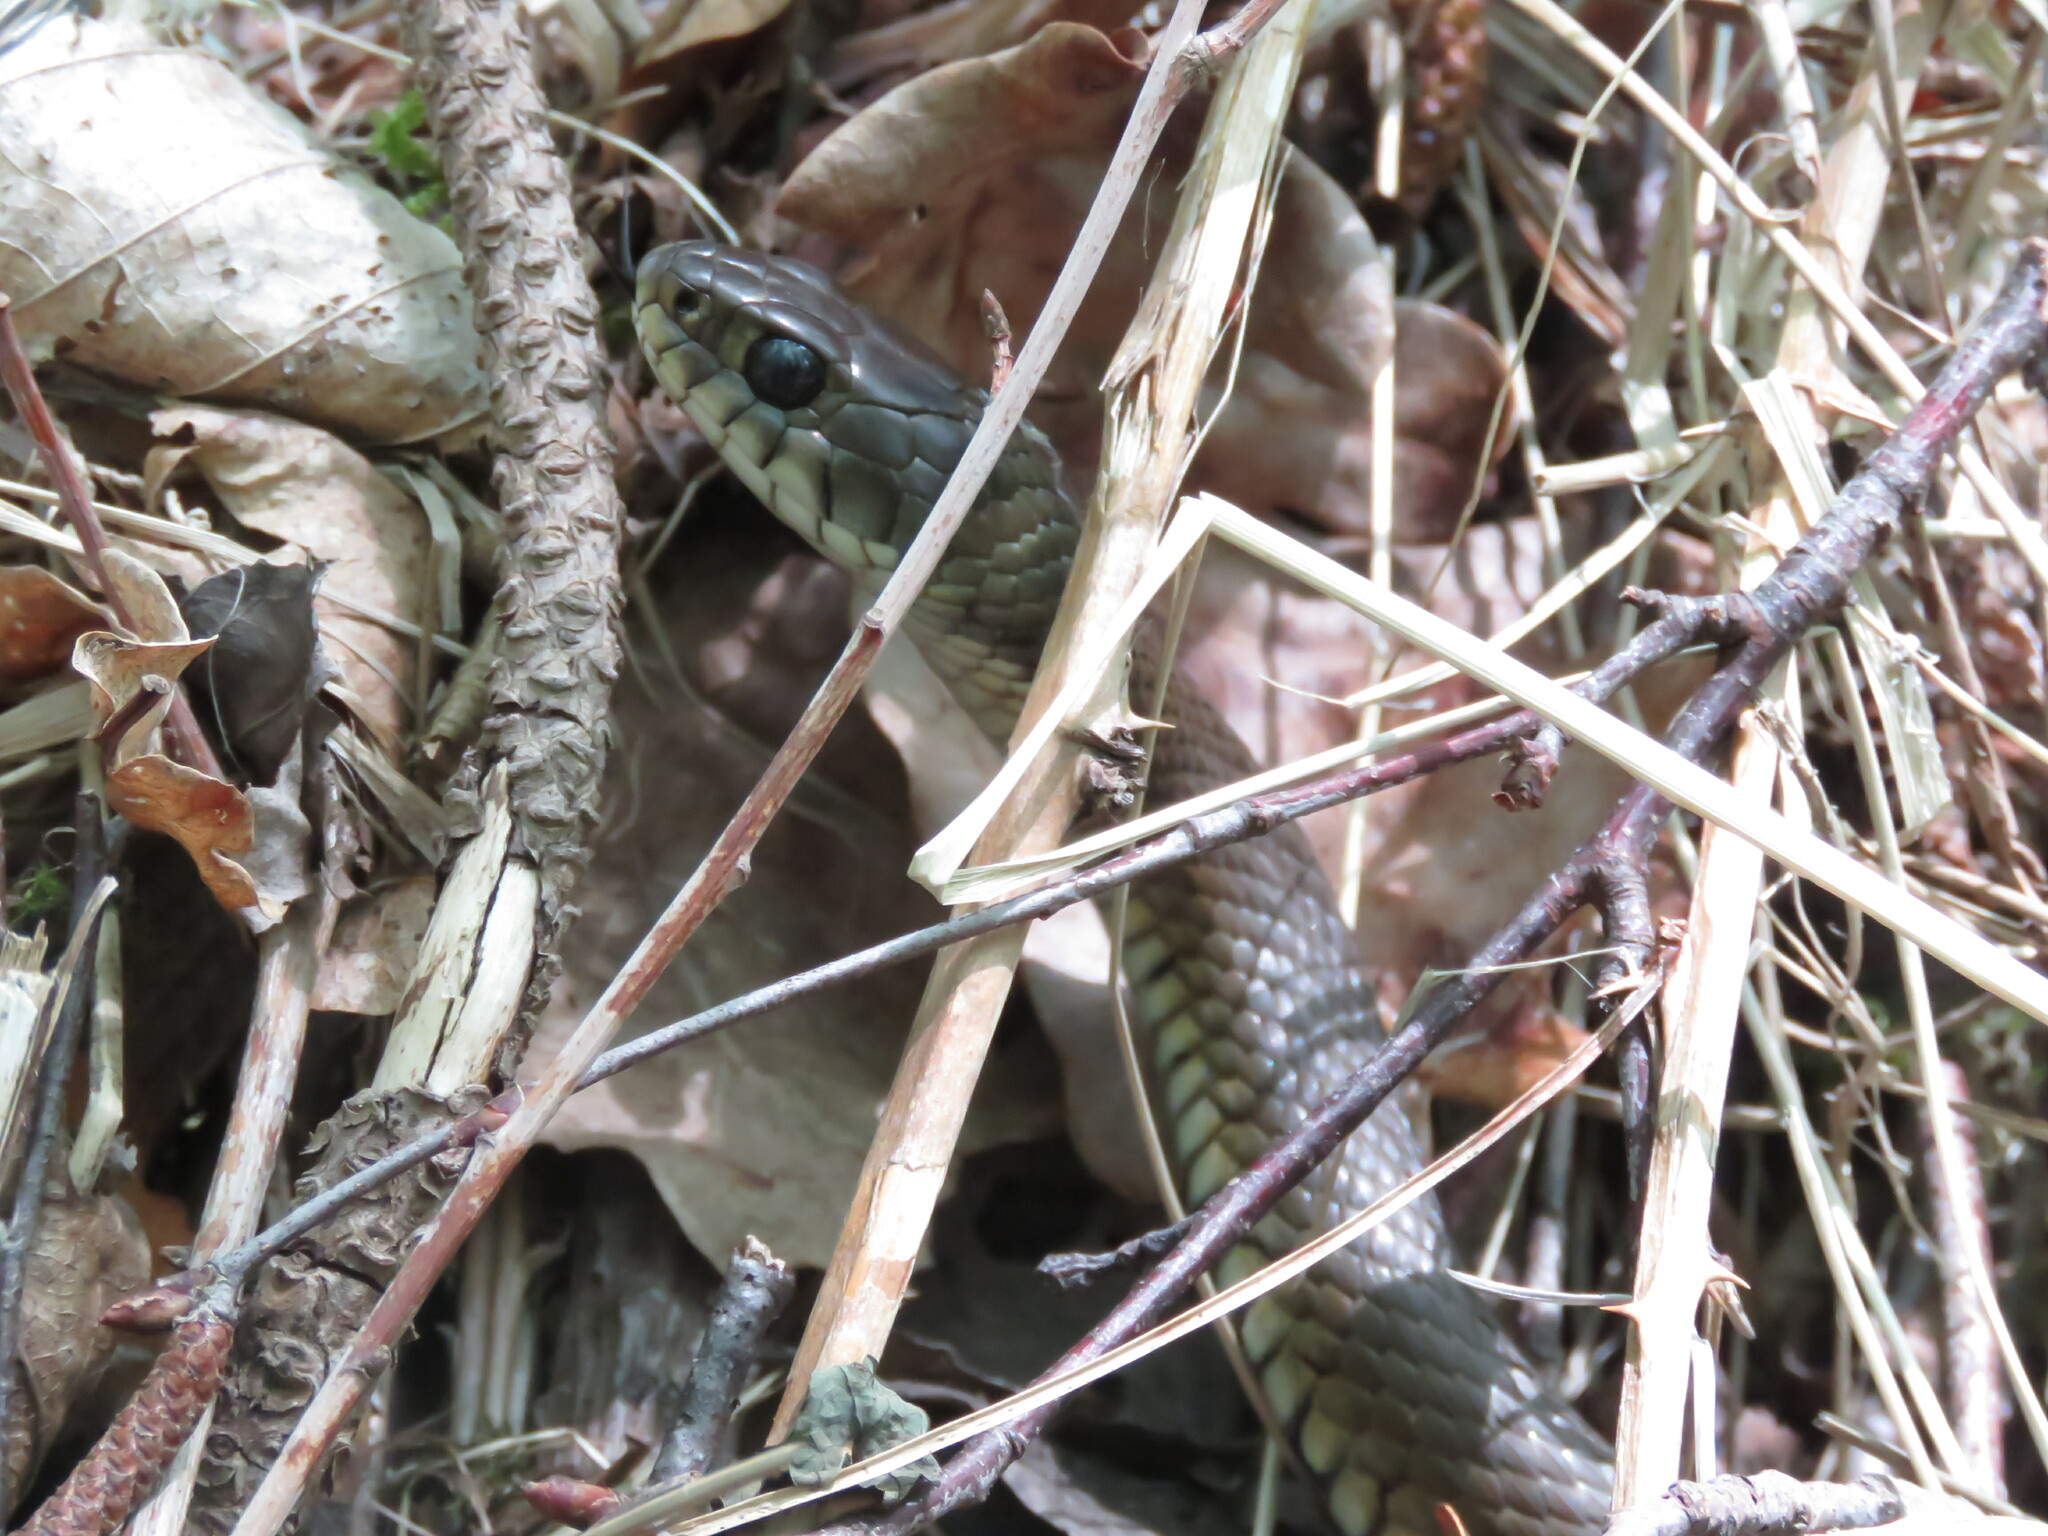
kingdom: Animalia
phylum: Chordata
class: Squamata
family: Colubridae
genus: Natrix
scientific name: Natrix astreptophora
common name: Red-eyed grass snake
